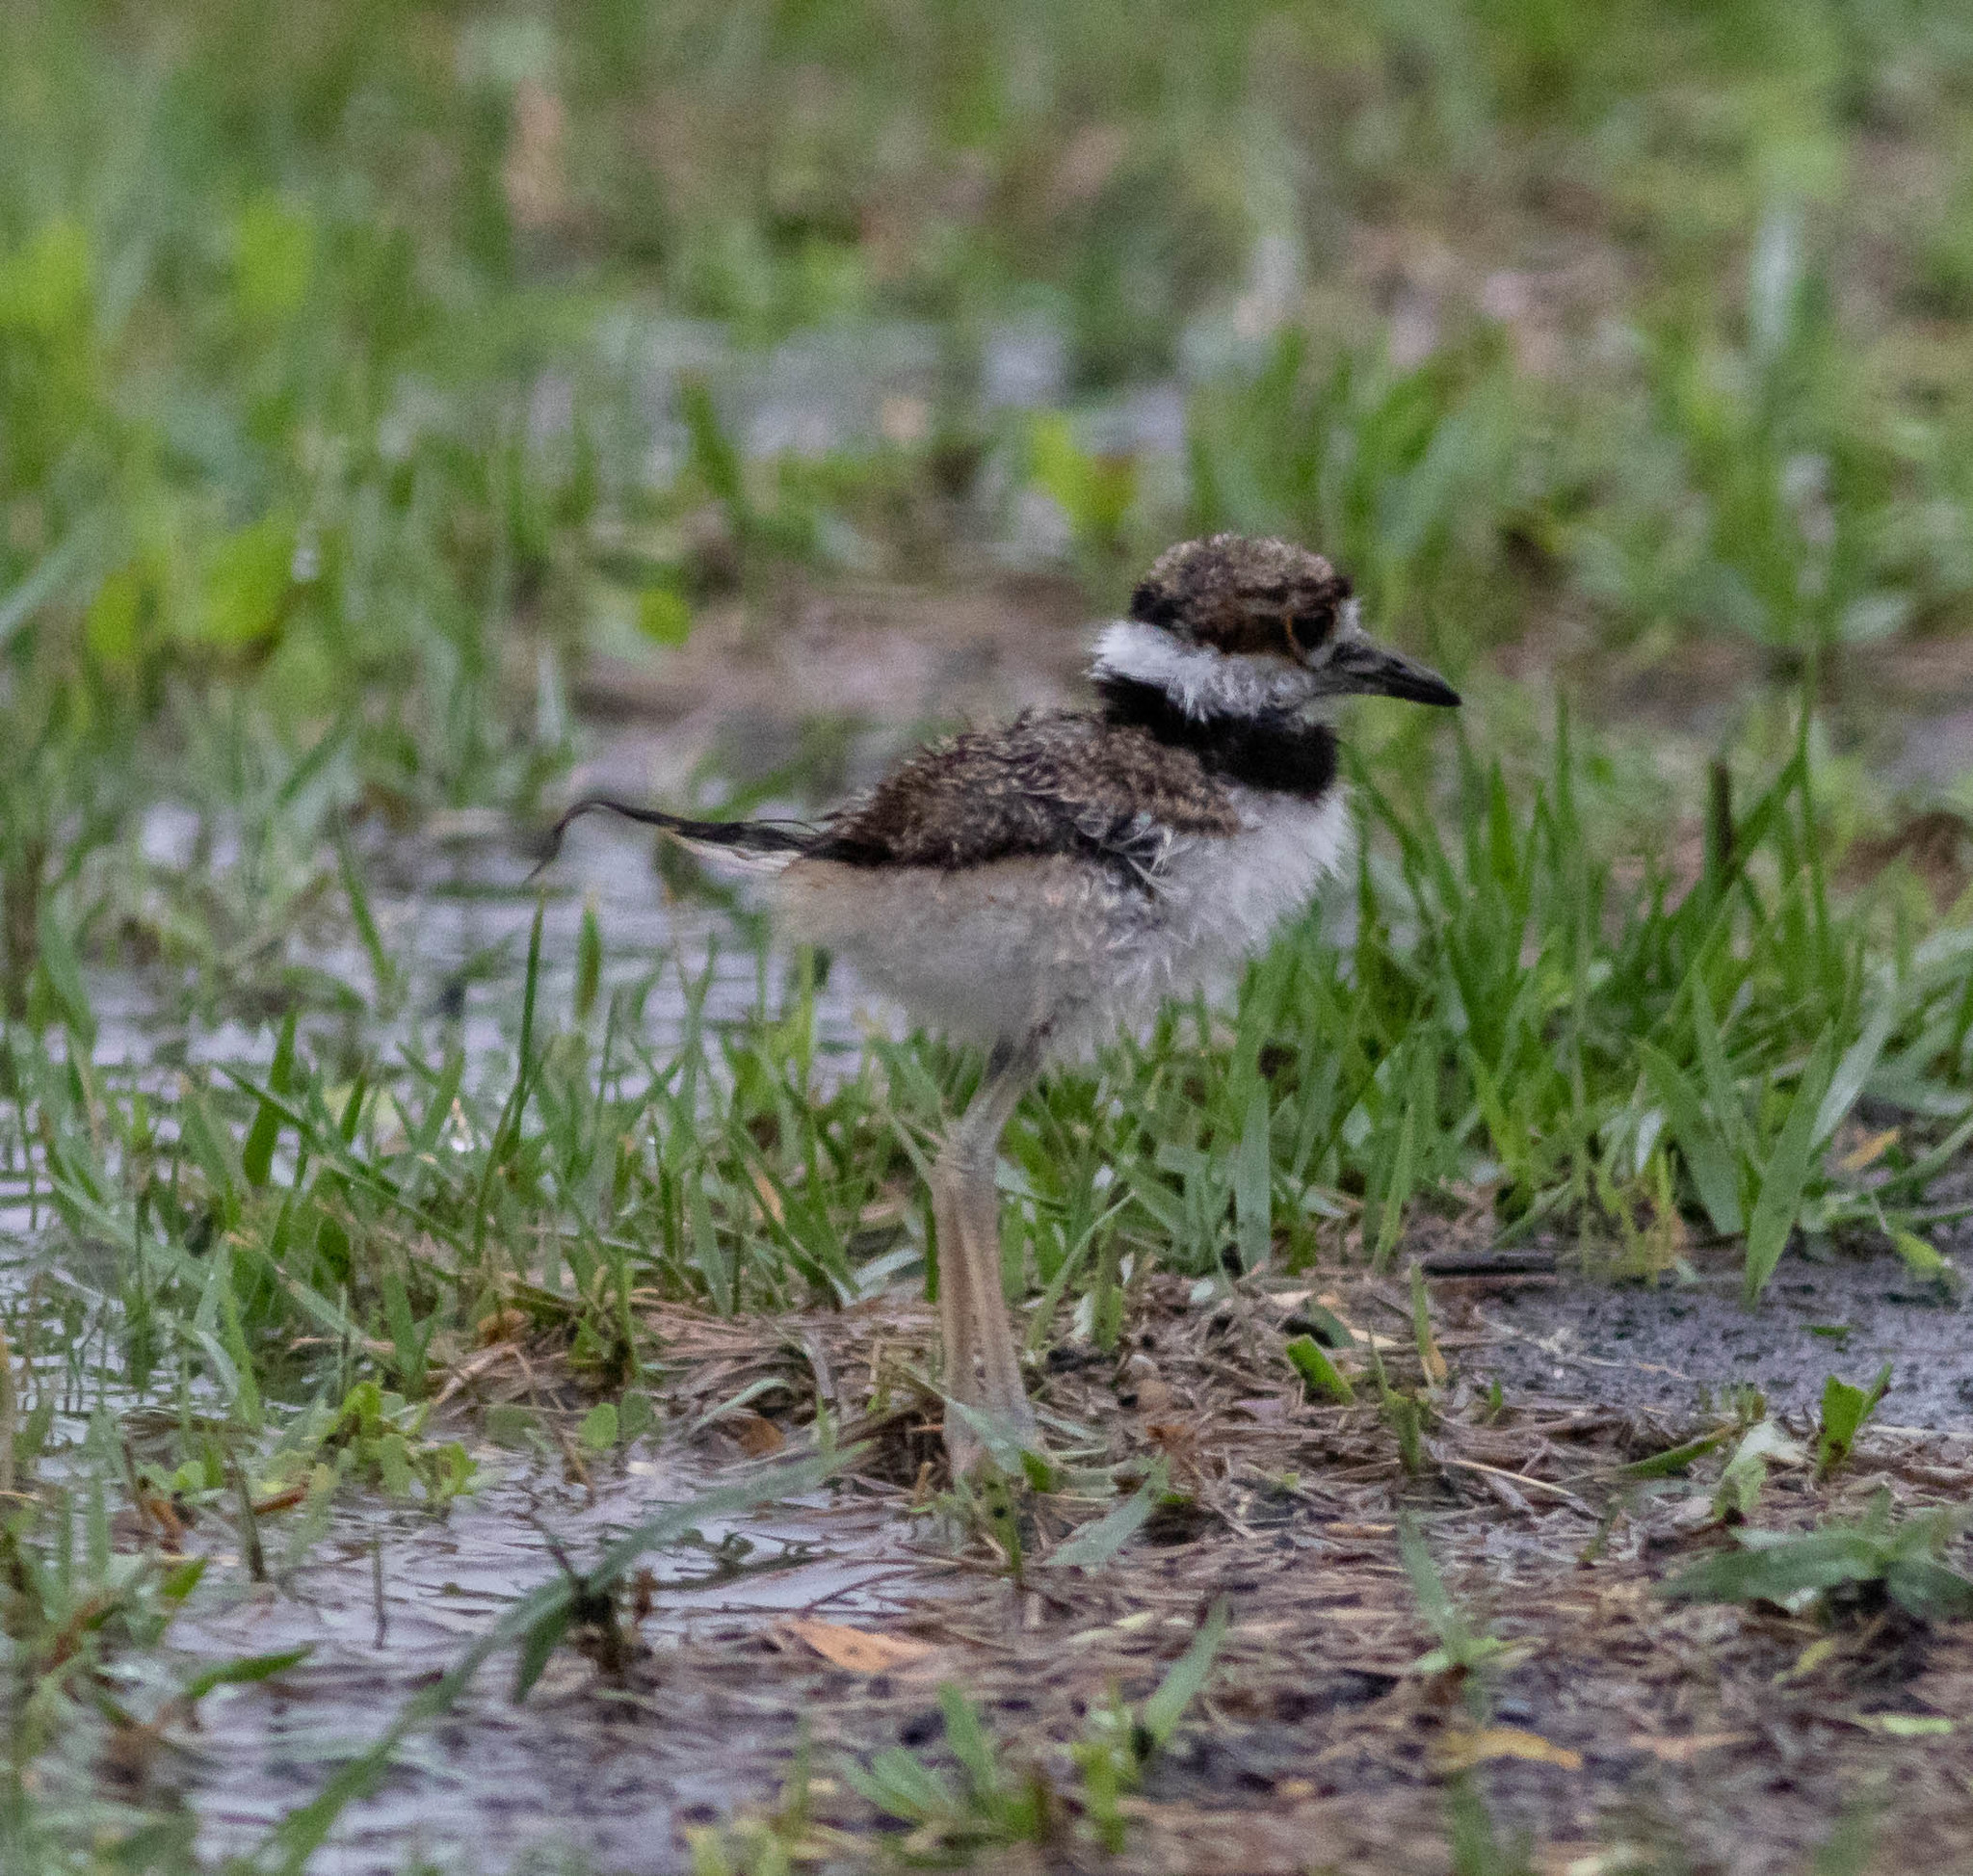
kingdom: Animalia
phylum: Chordata
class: Aves
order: Charadriiformes
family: Charadriidae
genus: Charadrius
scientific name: Charadrius vociferus
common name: Killdeer
